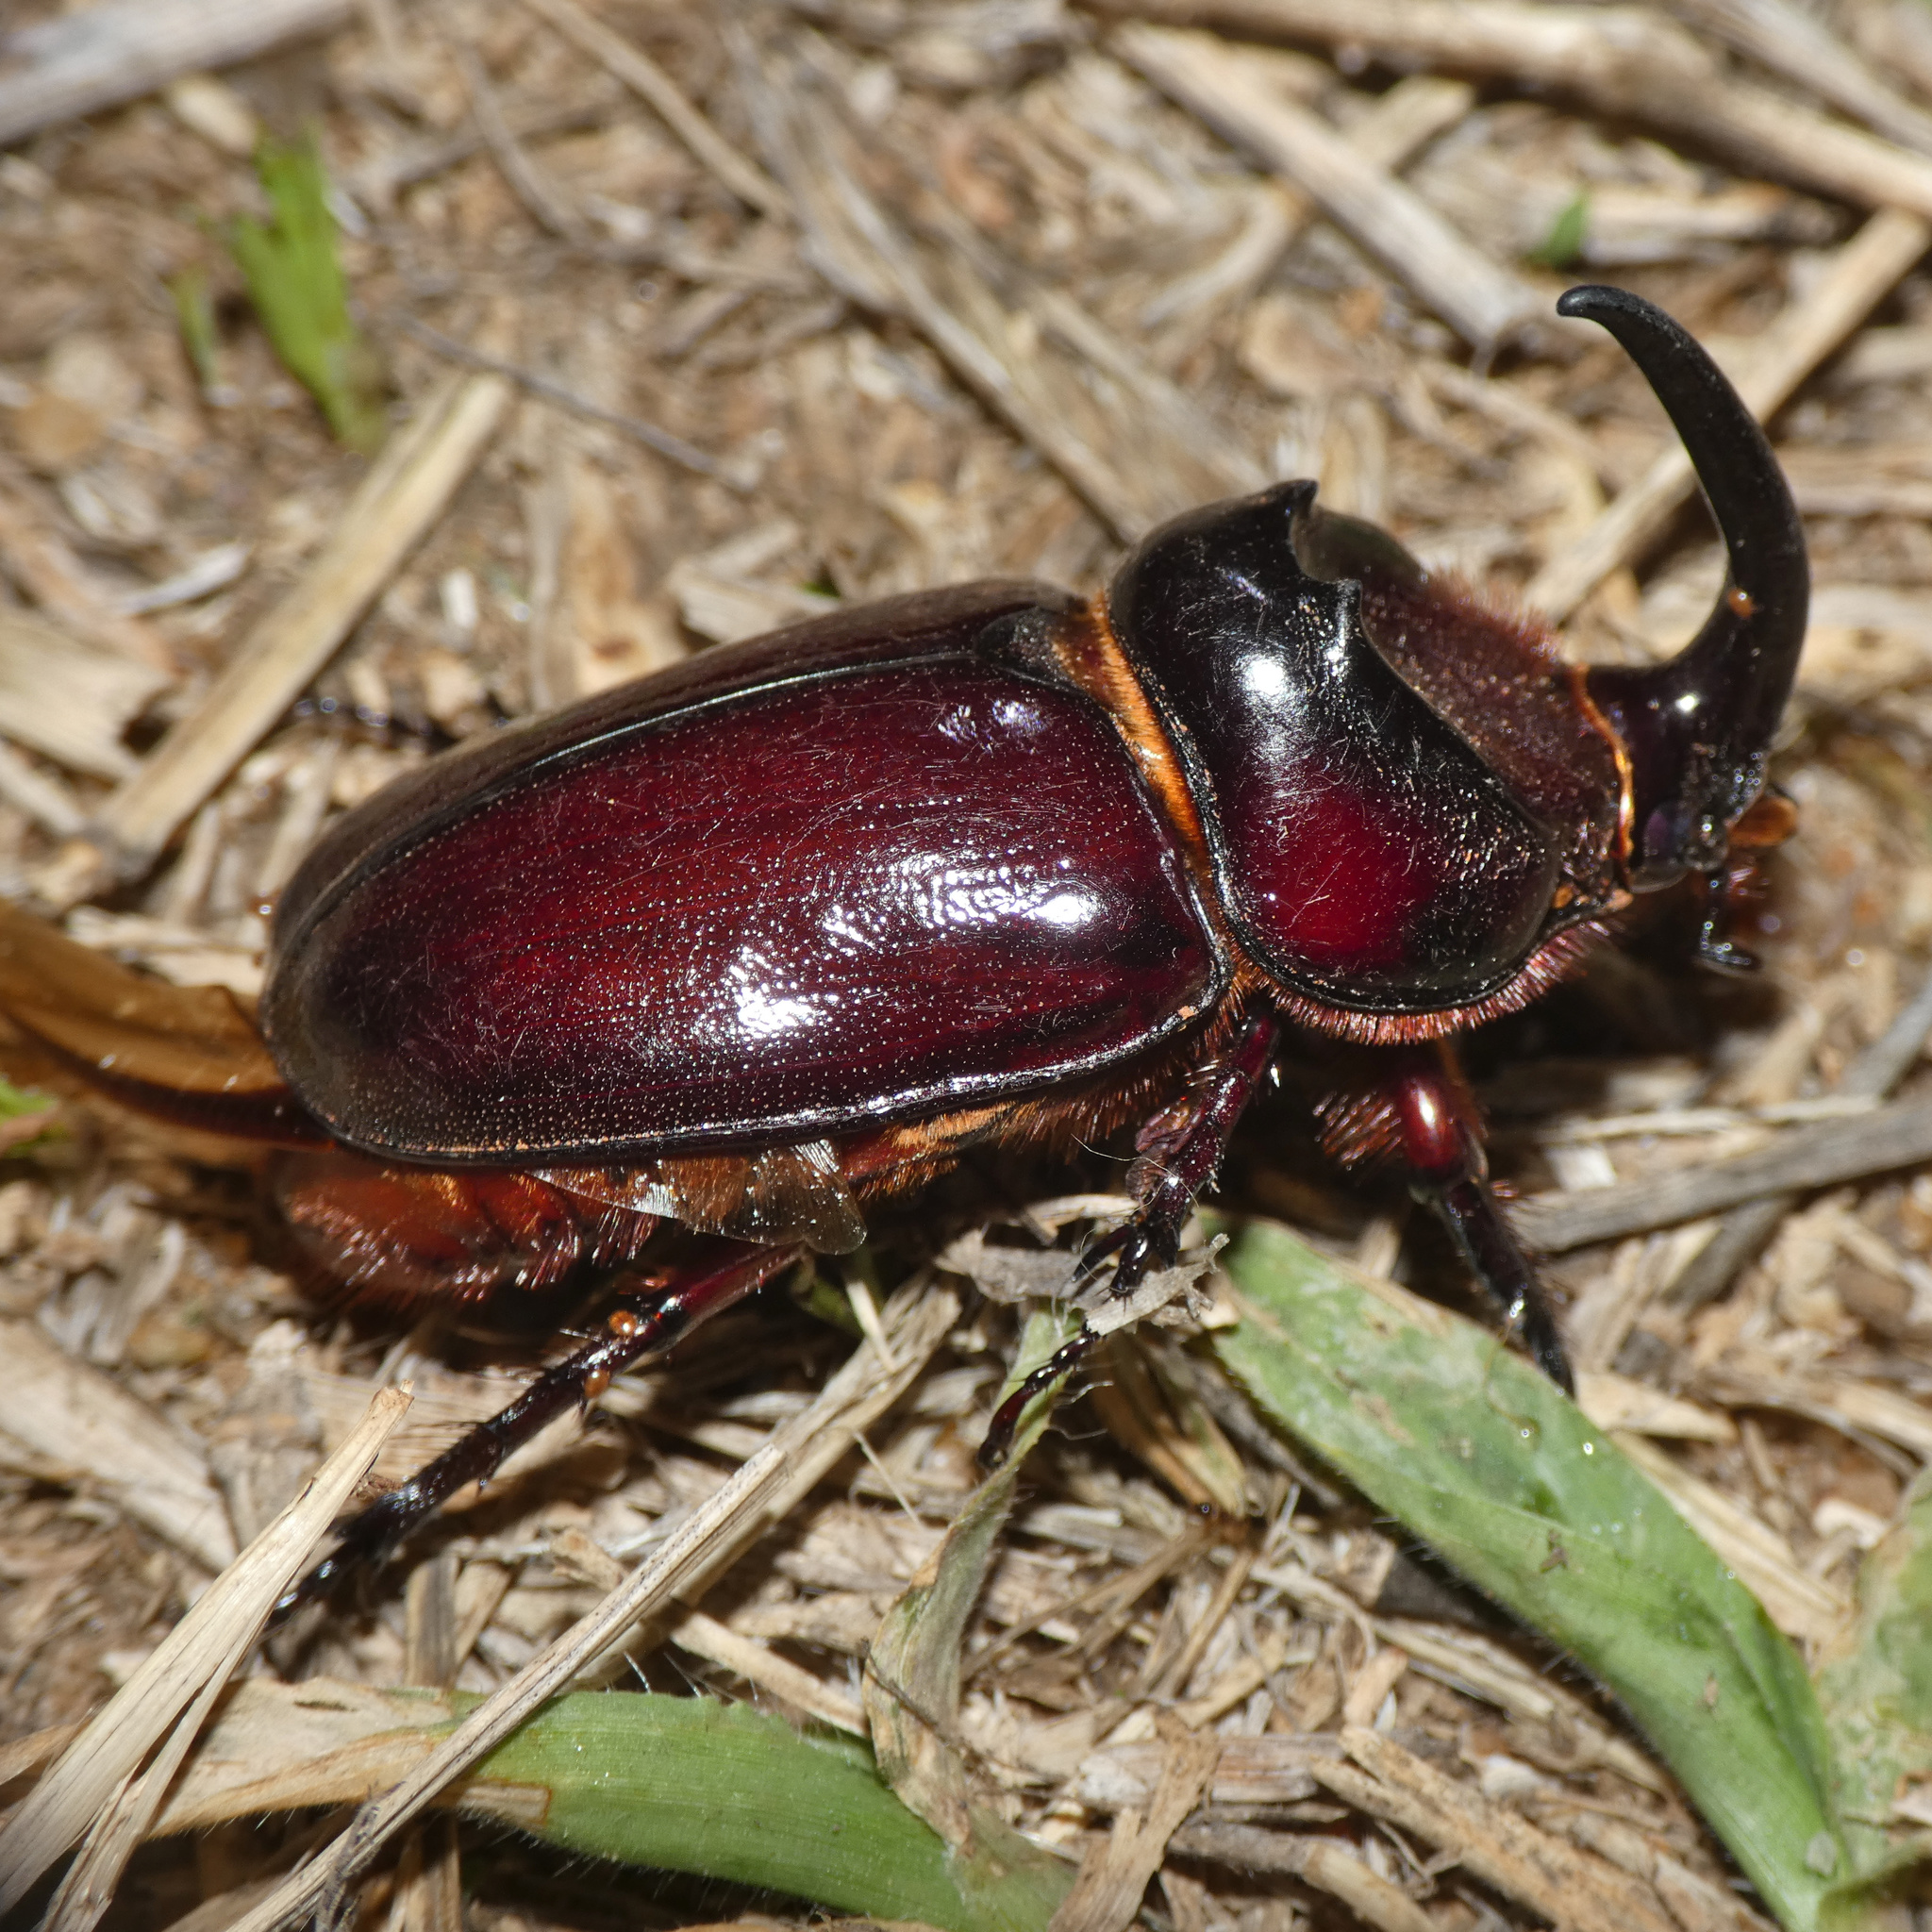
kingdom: Animalia
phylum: Arthropoda
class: Insecta
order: Coleoptera
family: Scarabaeidae
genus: Oryctes
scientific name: Oryctes boas
